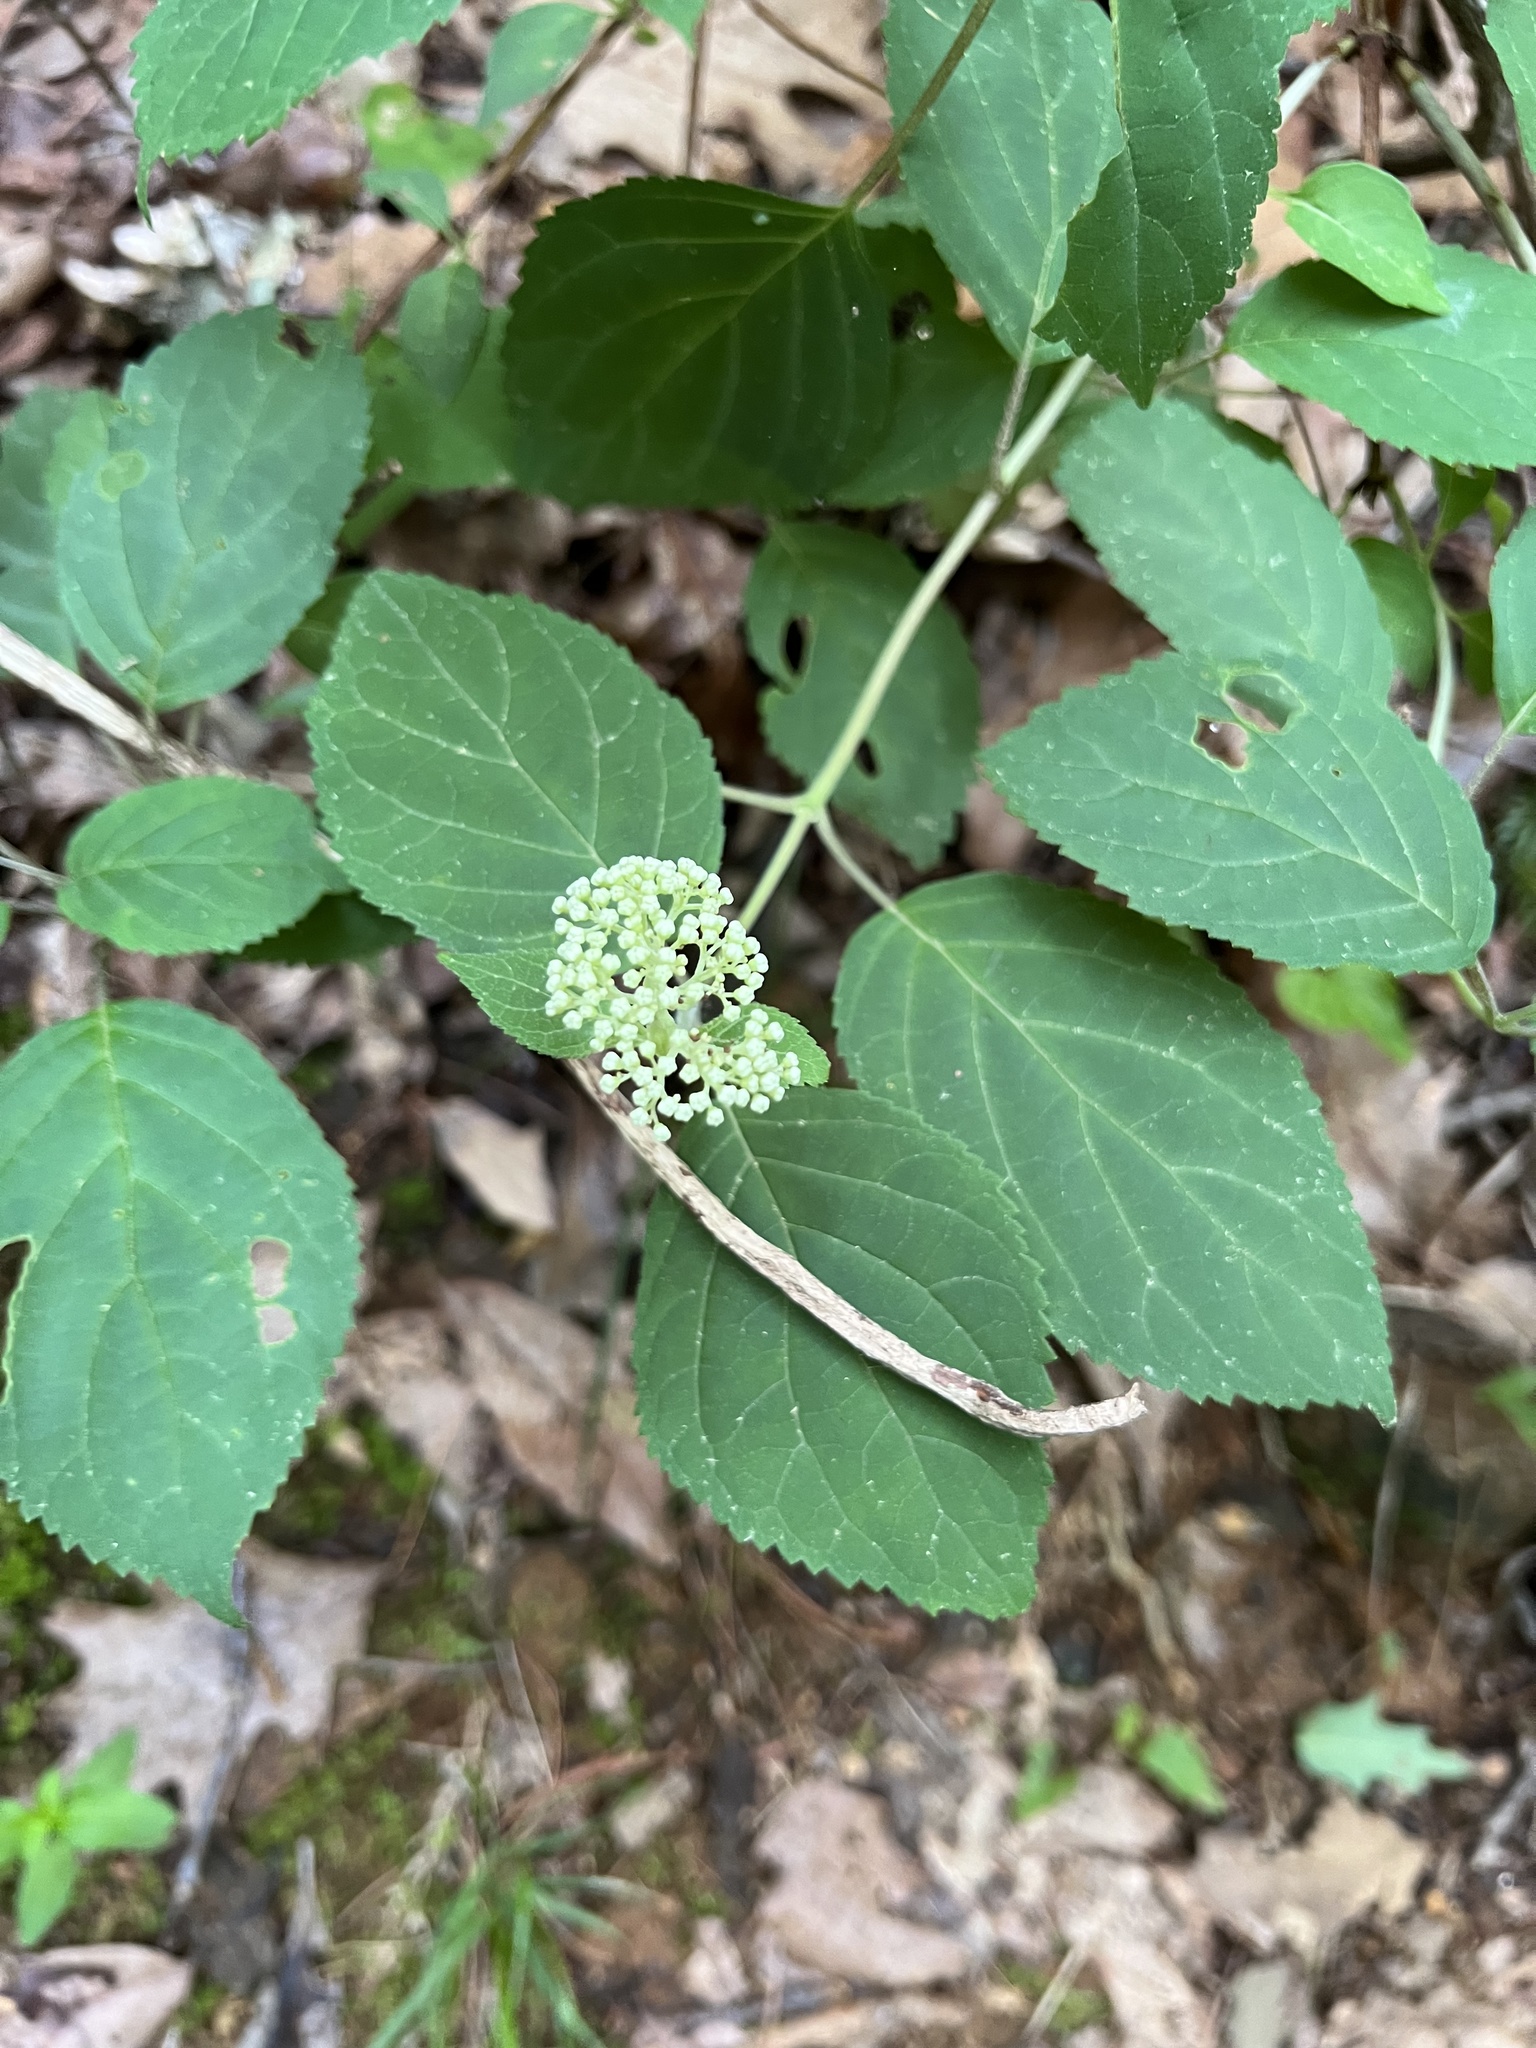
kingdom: Plantae
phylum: Tracheophyta
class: Magnoliopsida
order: Cornales
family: Hydrangeaceae
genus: Hydrangea
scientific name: Hydrangea arborescens
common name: Sevenbark
